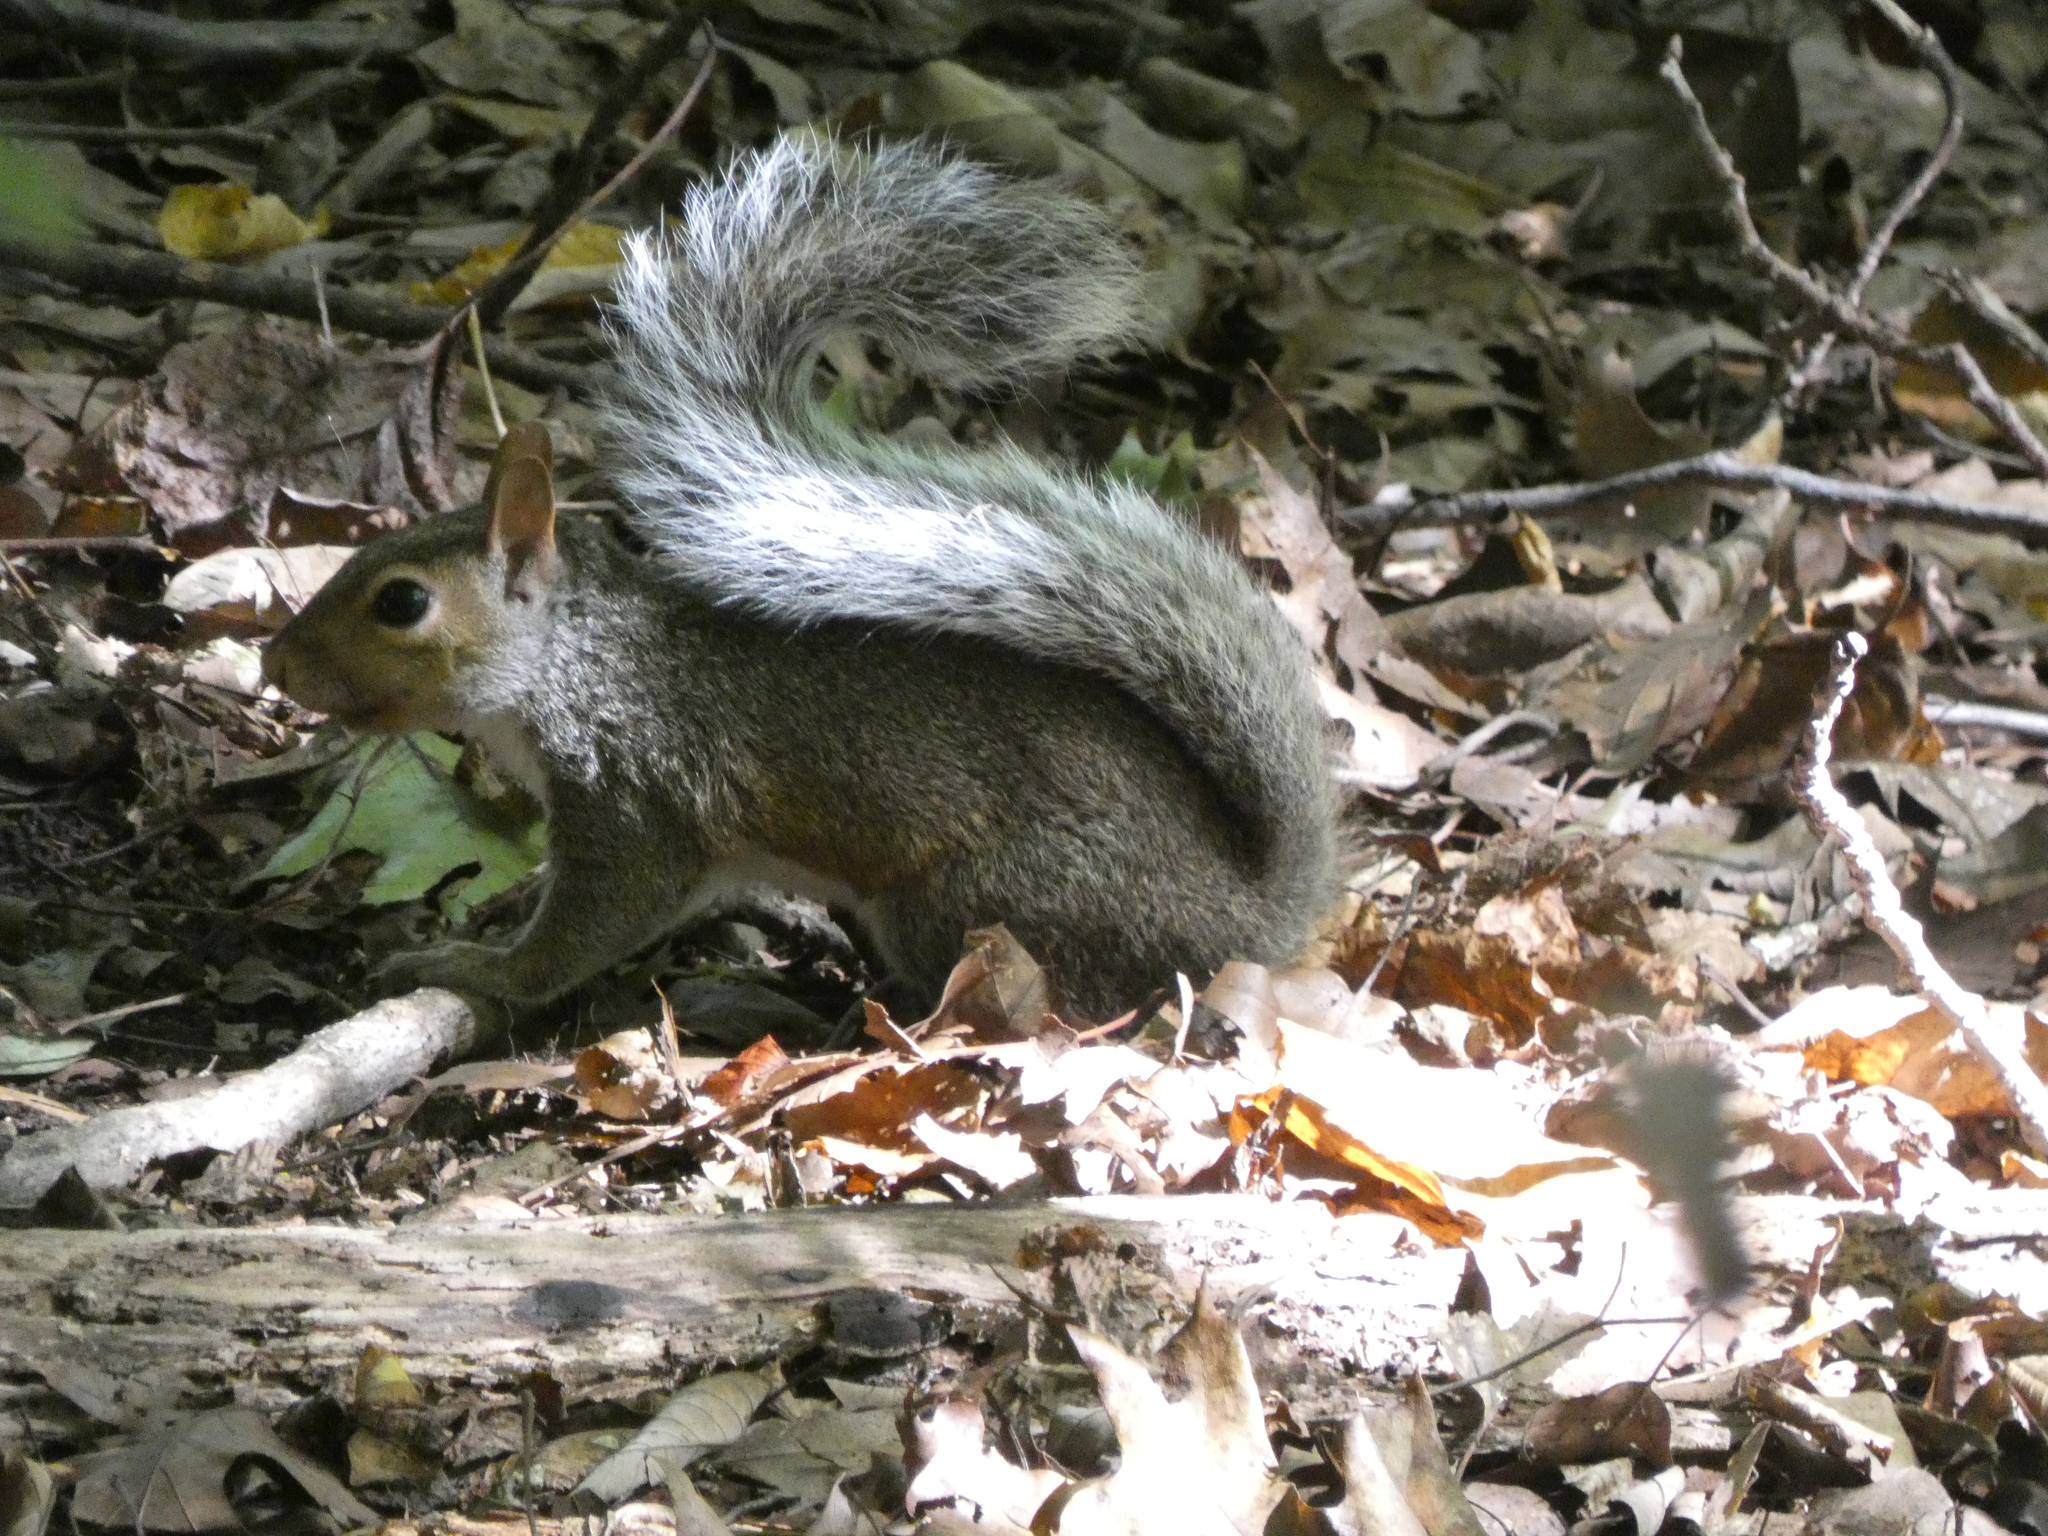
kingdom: Animalia
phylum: Chordata
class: Mammalia
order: Rodentia
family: Sciuridae
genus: Sciurus
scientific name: Sciurus carolinensis
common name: Eastern gray squirrel
